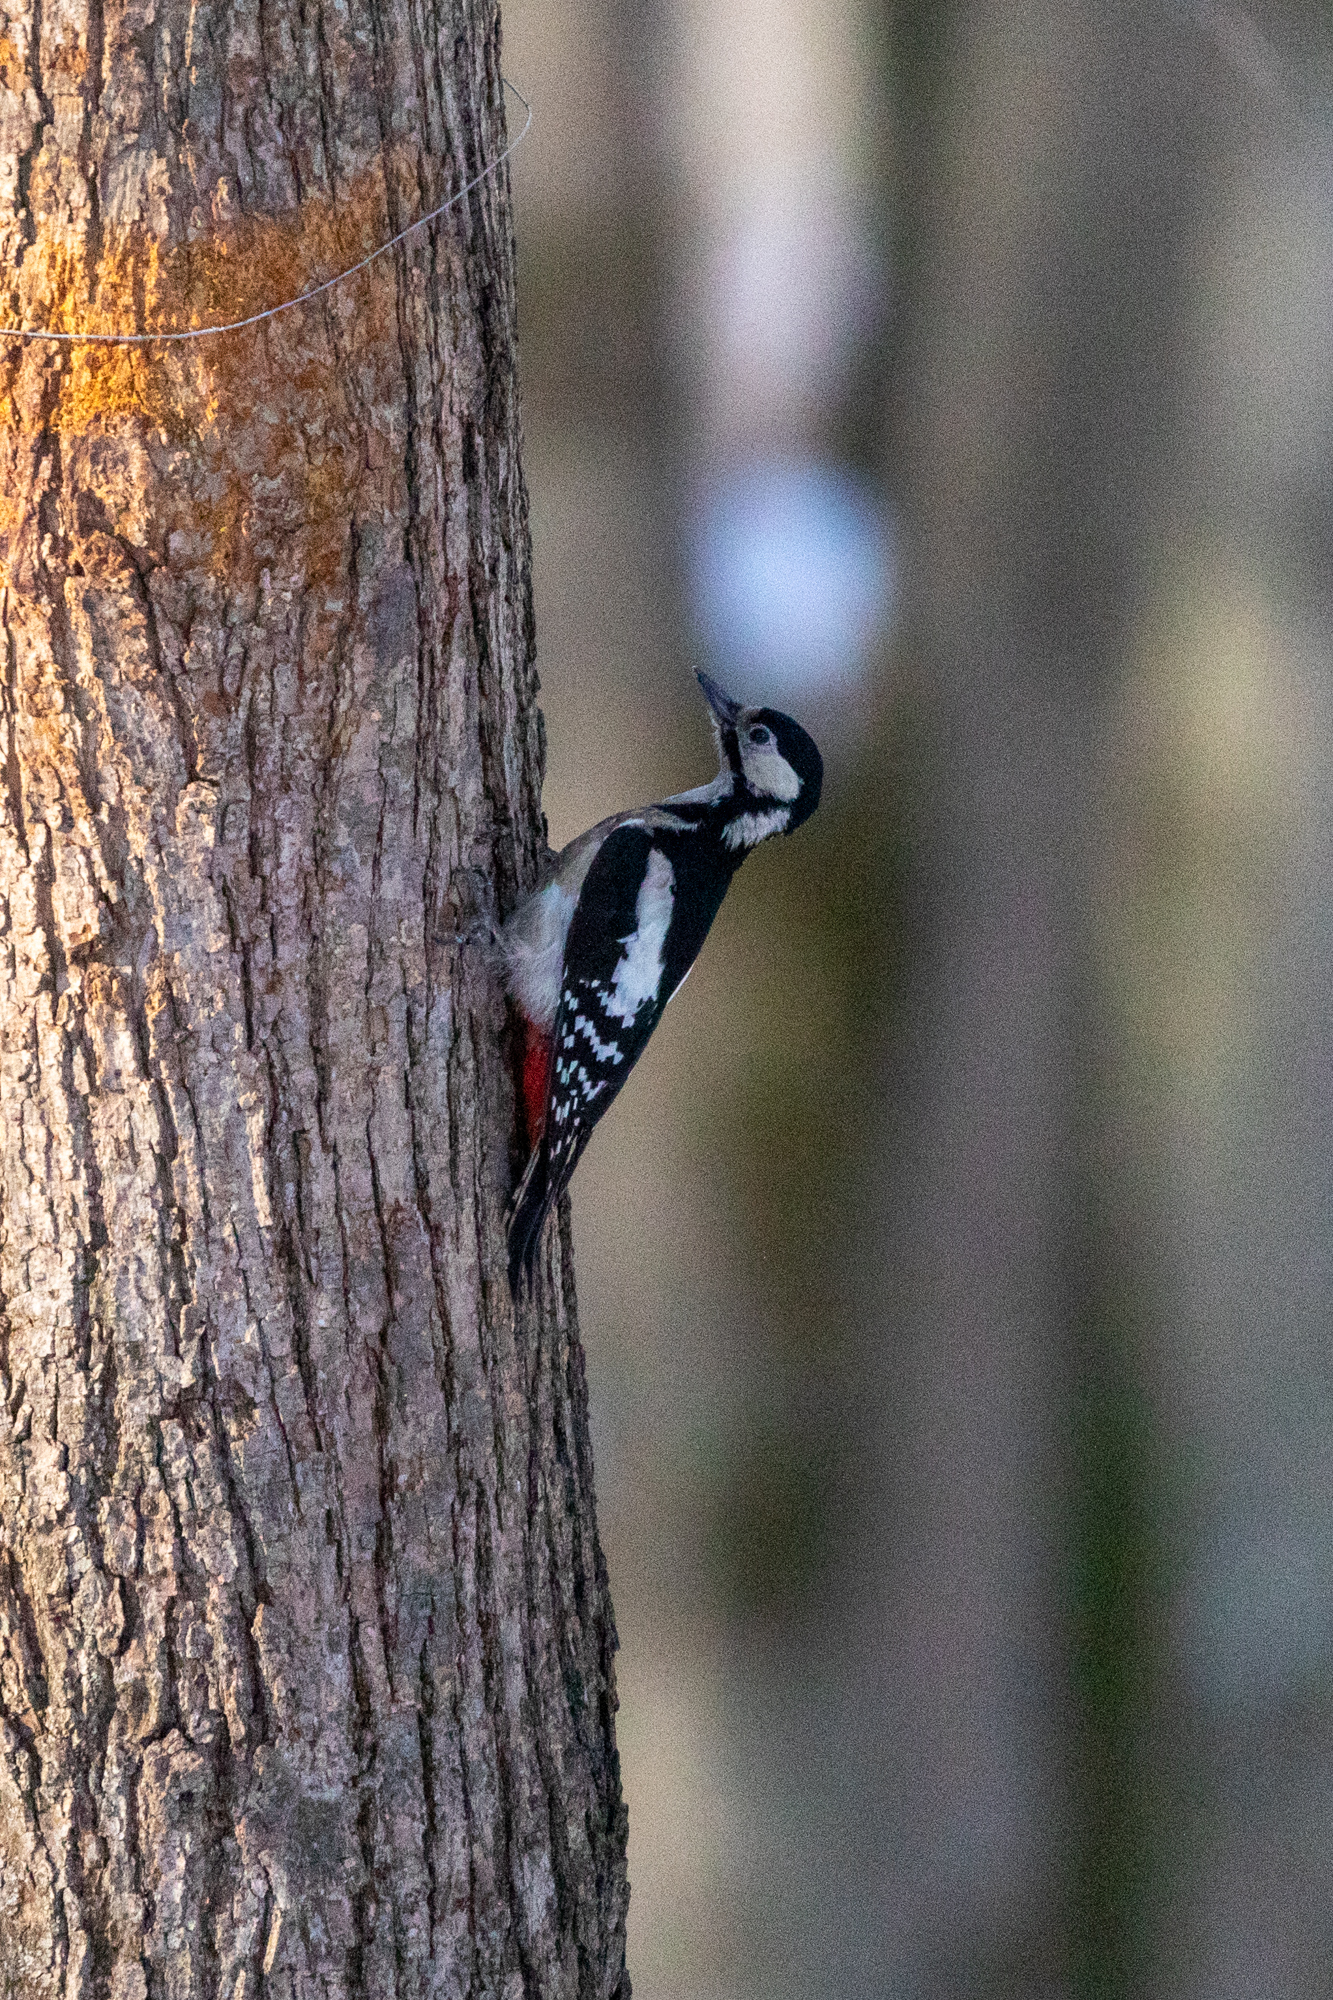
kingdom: Animalia
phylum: Chordata
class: Aves
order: Piciformes
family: Picidae
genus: Dendrocopos
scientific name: Dendrocopos major
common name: Great spotted woodpecker
